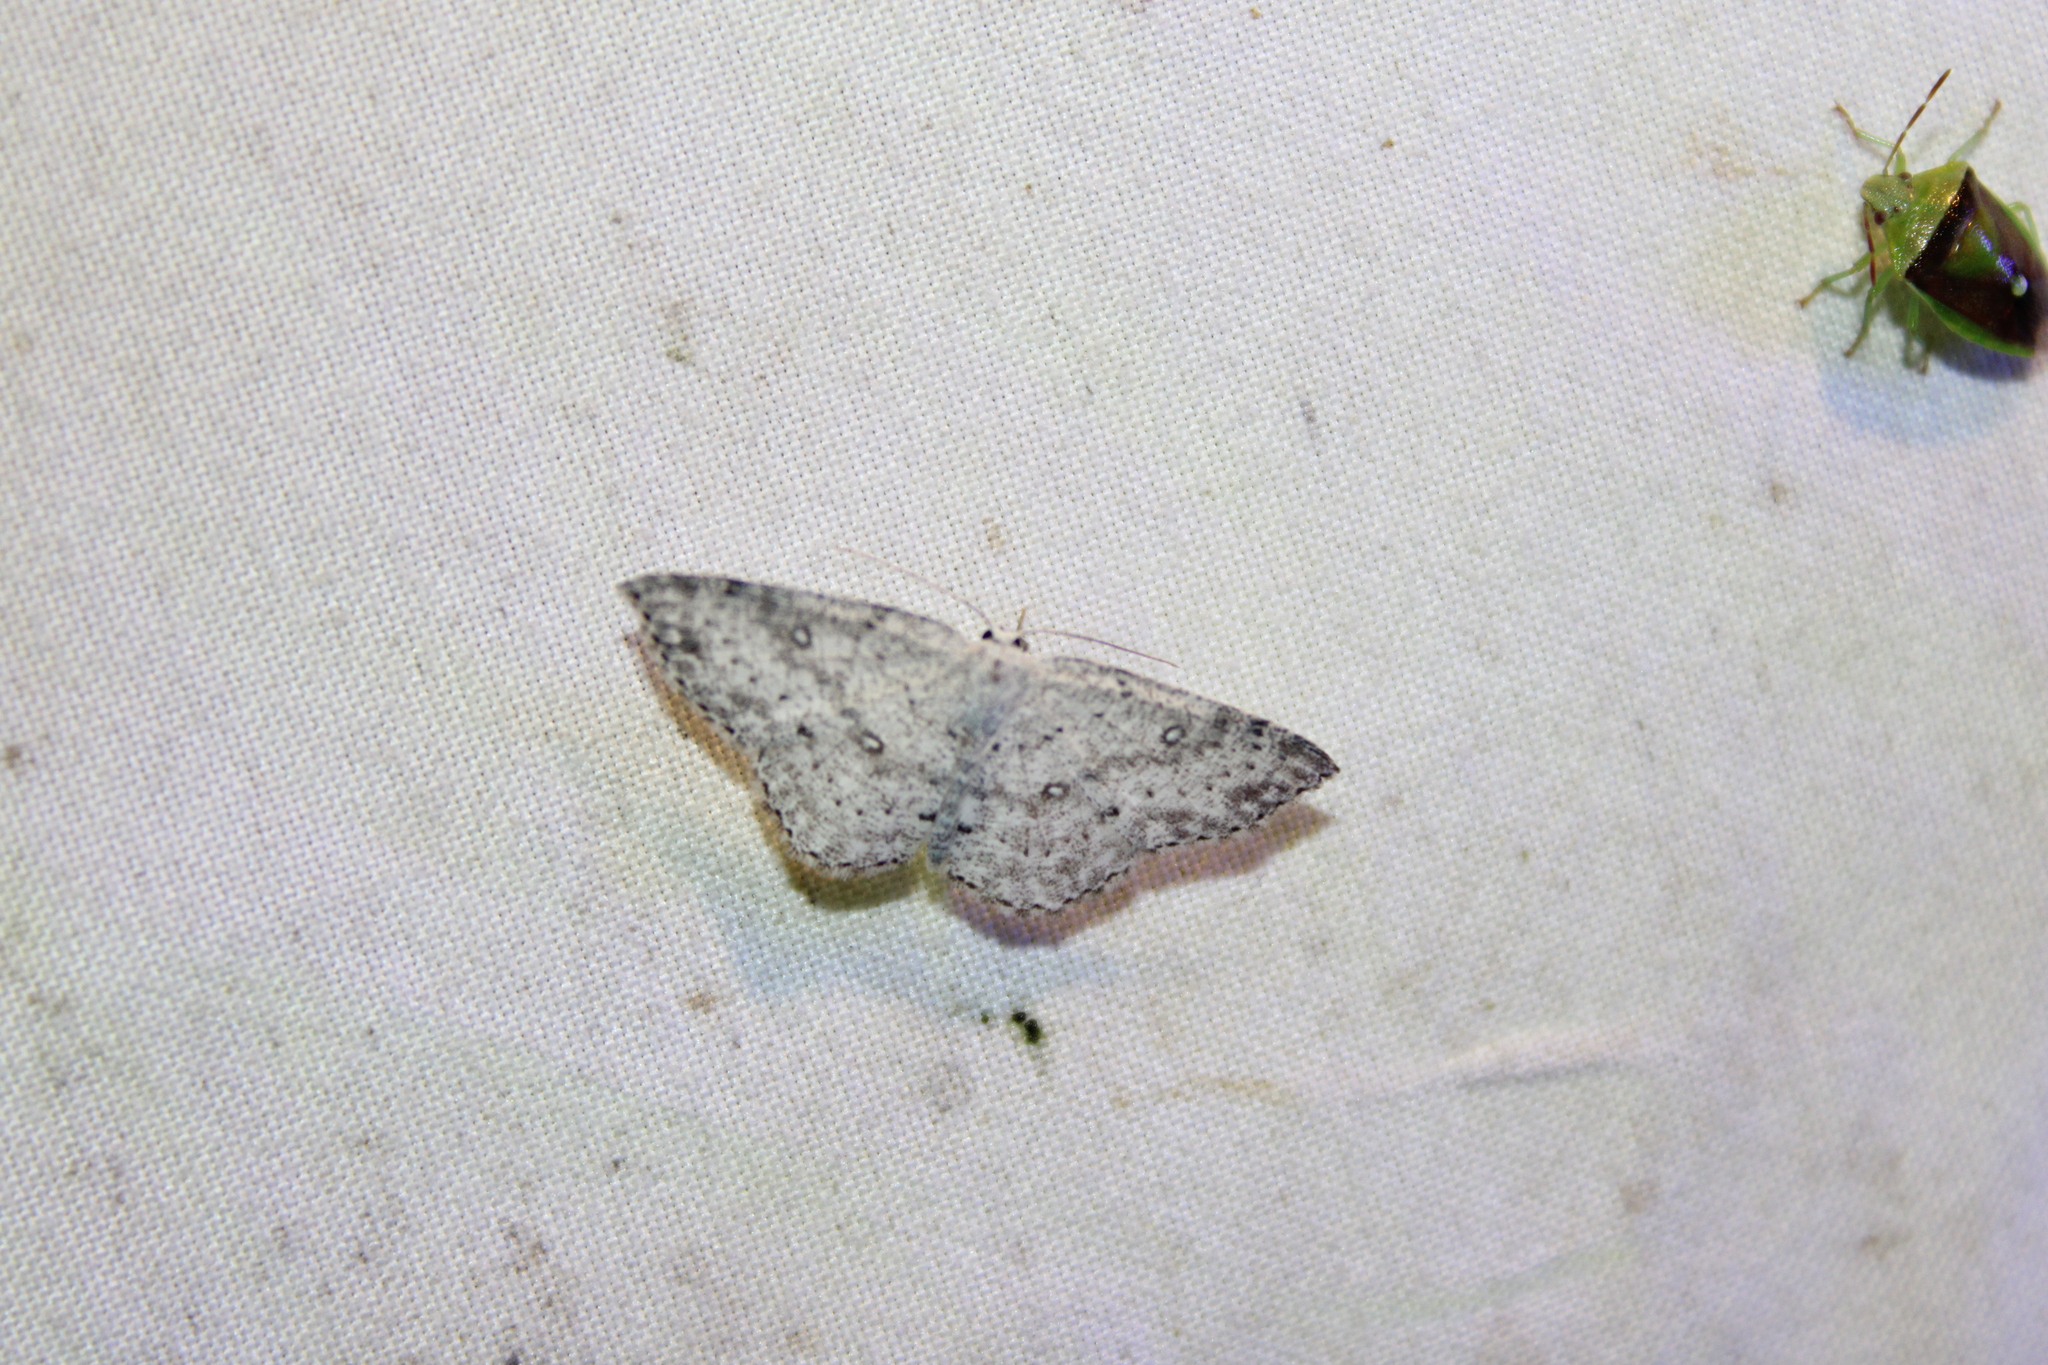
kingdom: Animalia
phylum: Arthropoda
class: Insecta
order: Lepidoptera
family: Geometridae
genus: Cyclophora
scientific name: Cyclophora pendulinaria
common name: Sweet fern geometer
